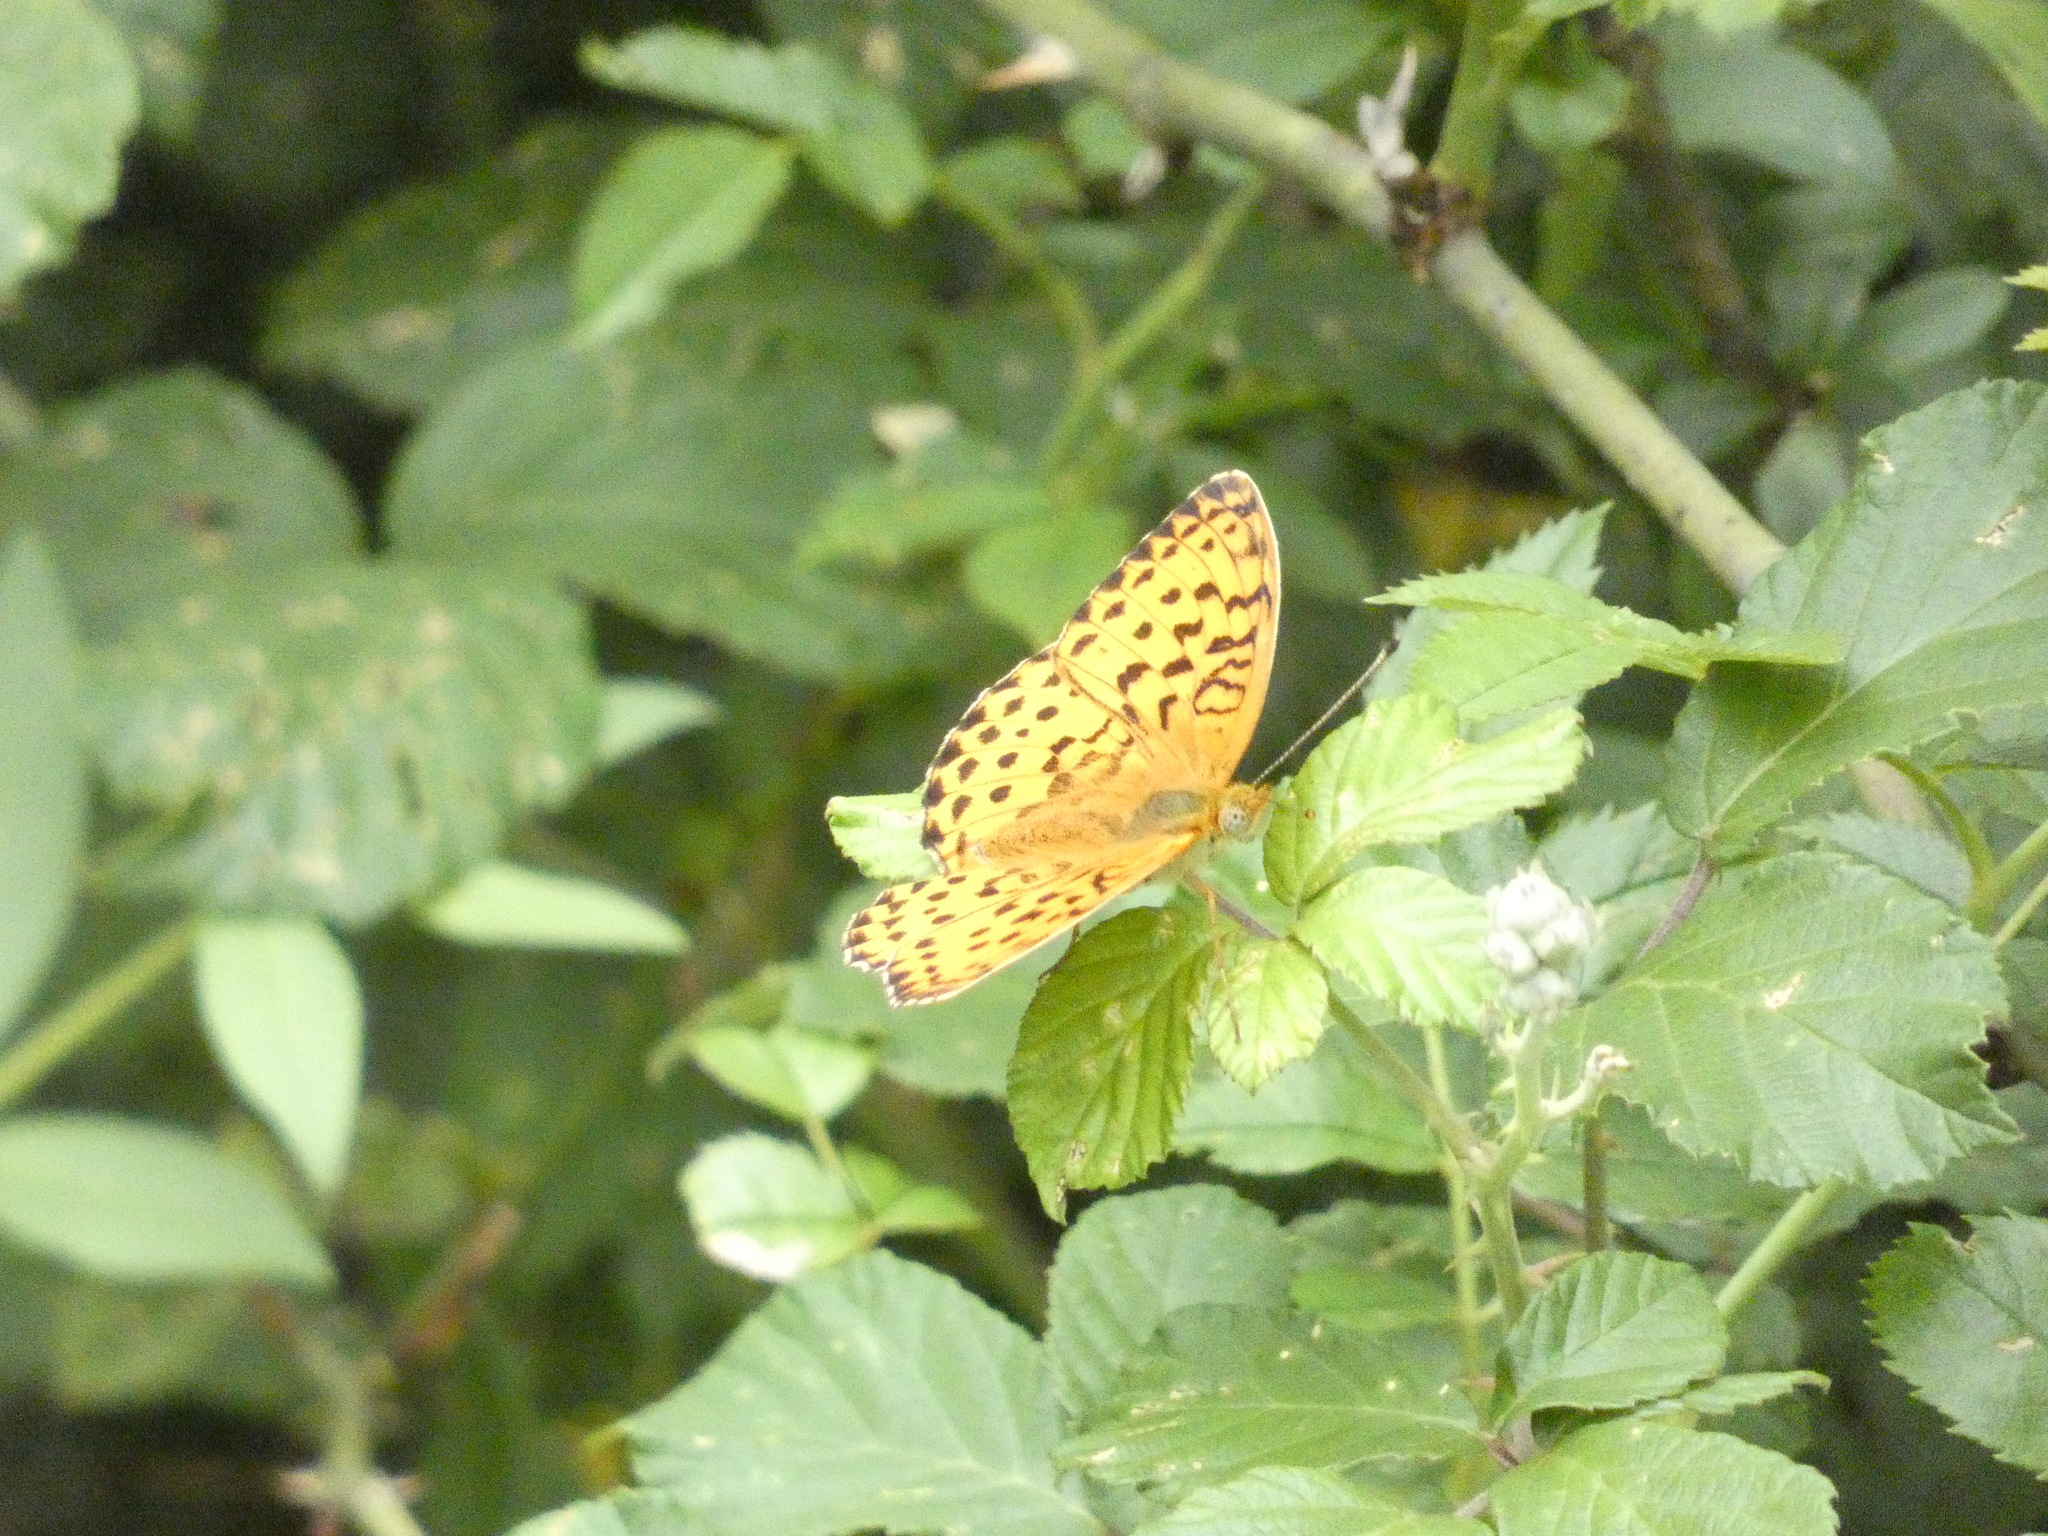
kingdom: Animalia
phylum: Arthropoda
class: Insecta
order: Lepidoptera
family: Nymphalidae
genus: Brenthis
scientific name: Brenthis daphne
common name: Marbled fritillary
